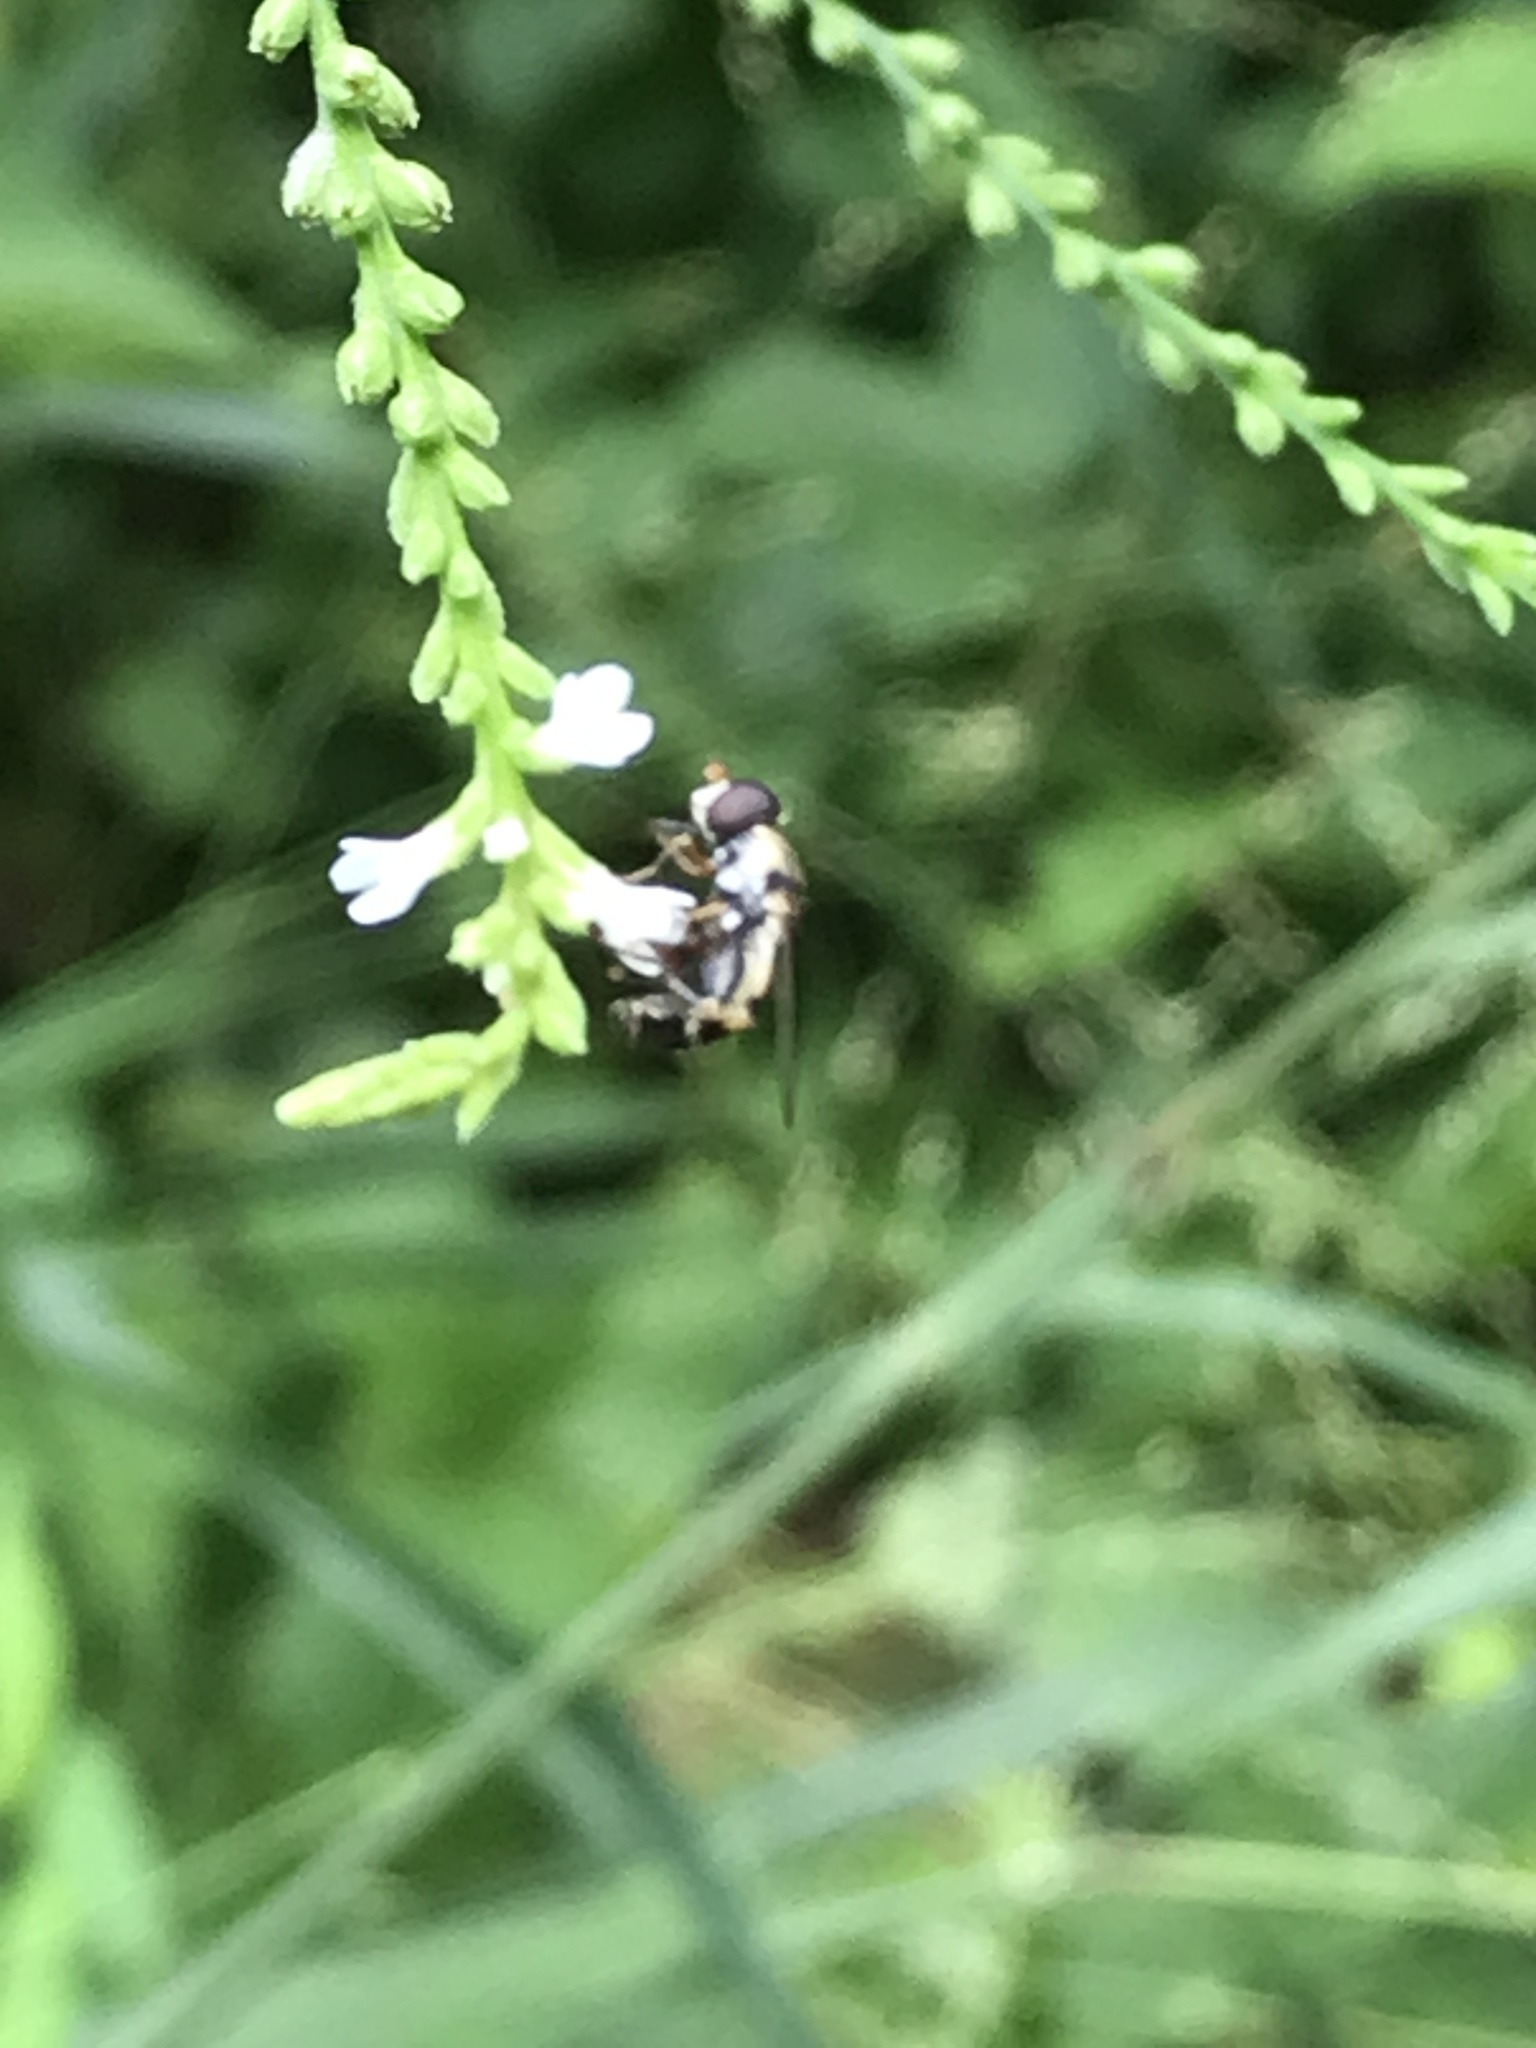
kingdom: Animalia
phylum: Arthropoda
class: Insecta
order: Diptera
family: Syrphidae
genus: Syritta
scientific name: Syritta pipiens
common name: Hover fly
